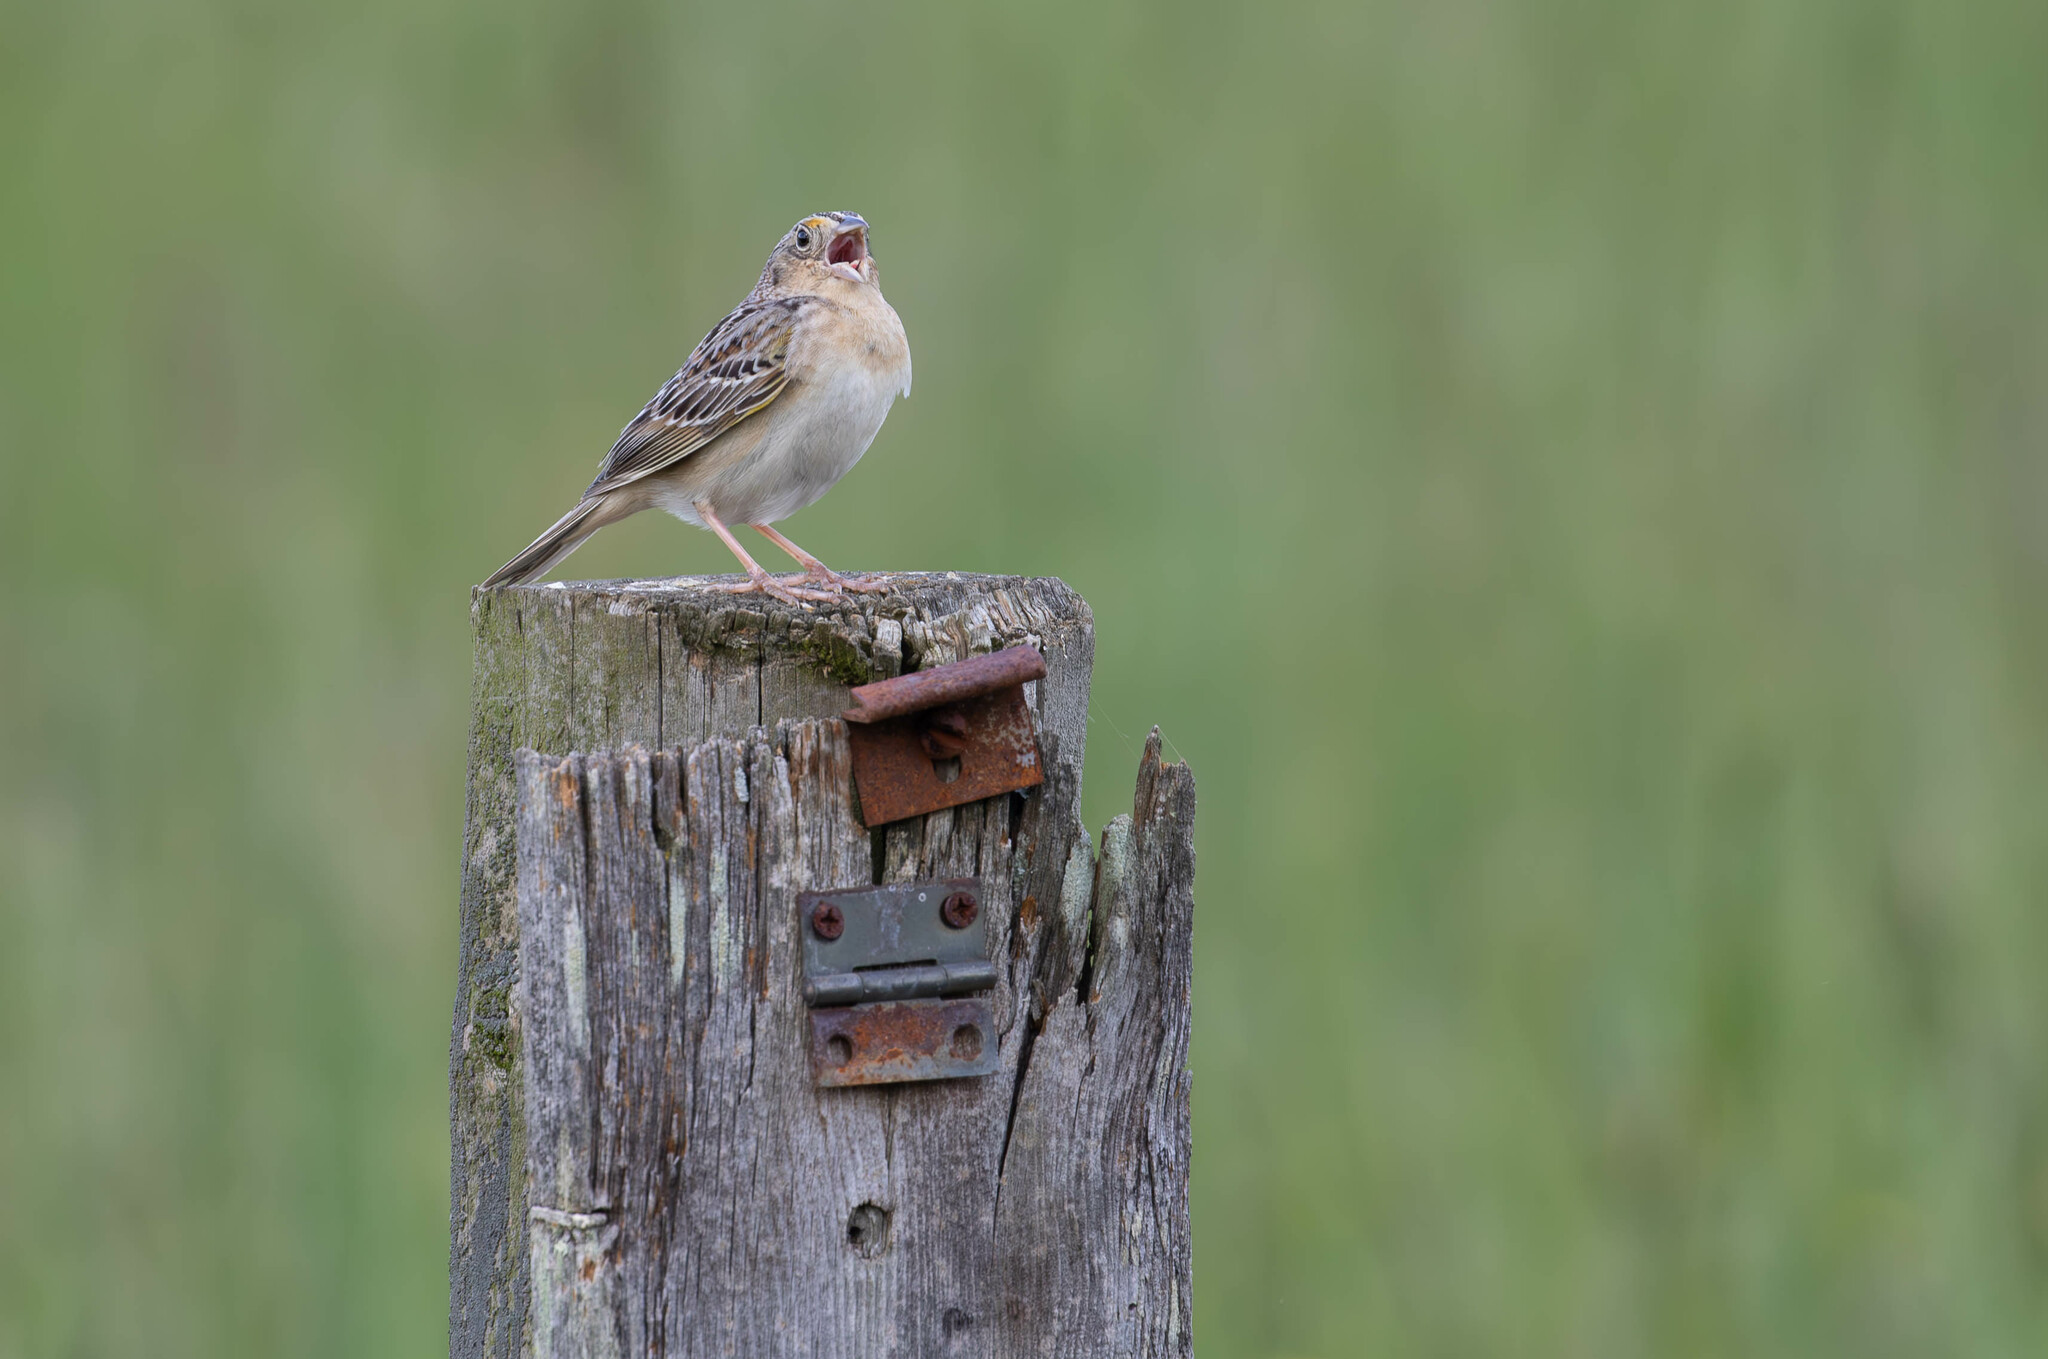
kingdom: Animalia
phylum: Chordata
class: Aves
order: Passeriformes
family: Passerellidae
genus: Ammodramus
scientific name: Ammodramus savannarum
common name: Grasshopper sparrow
